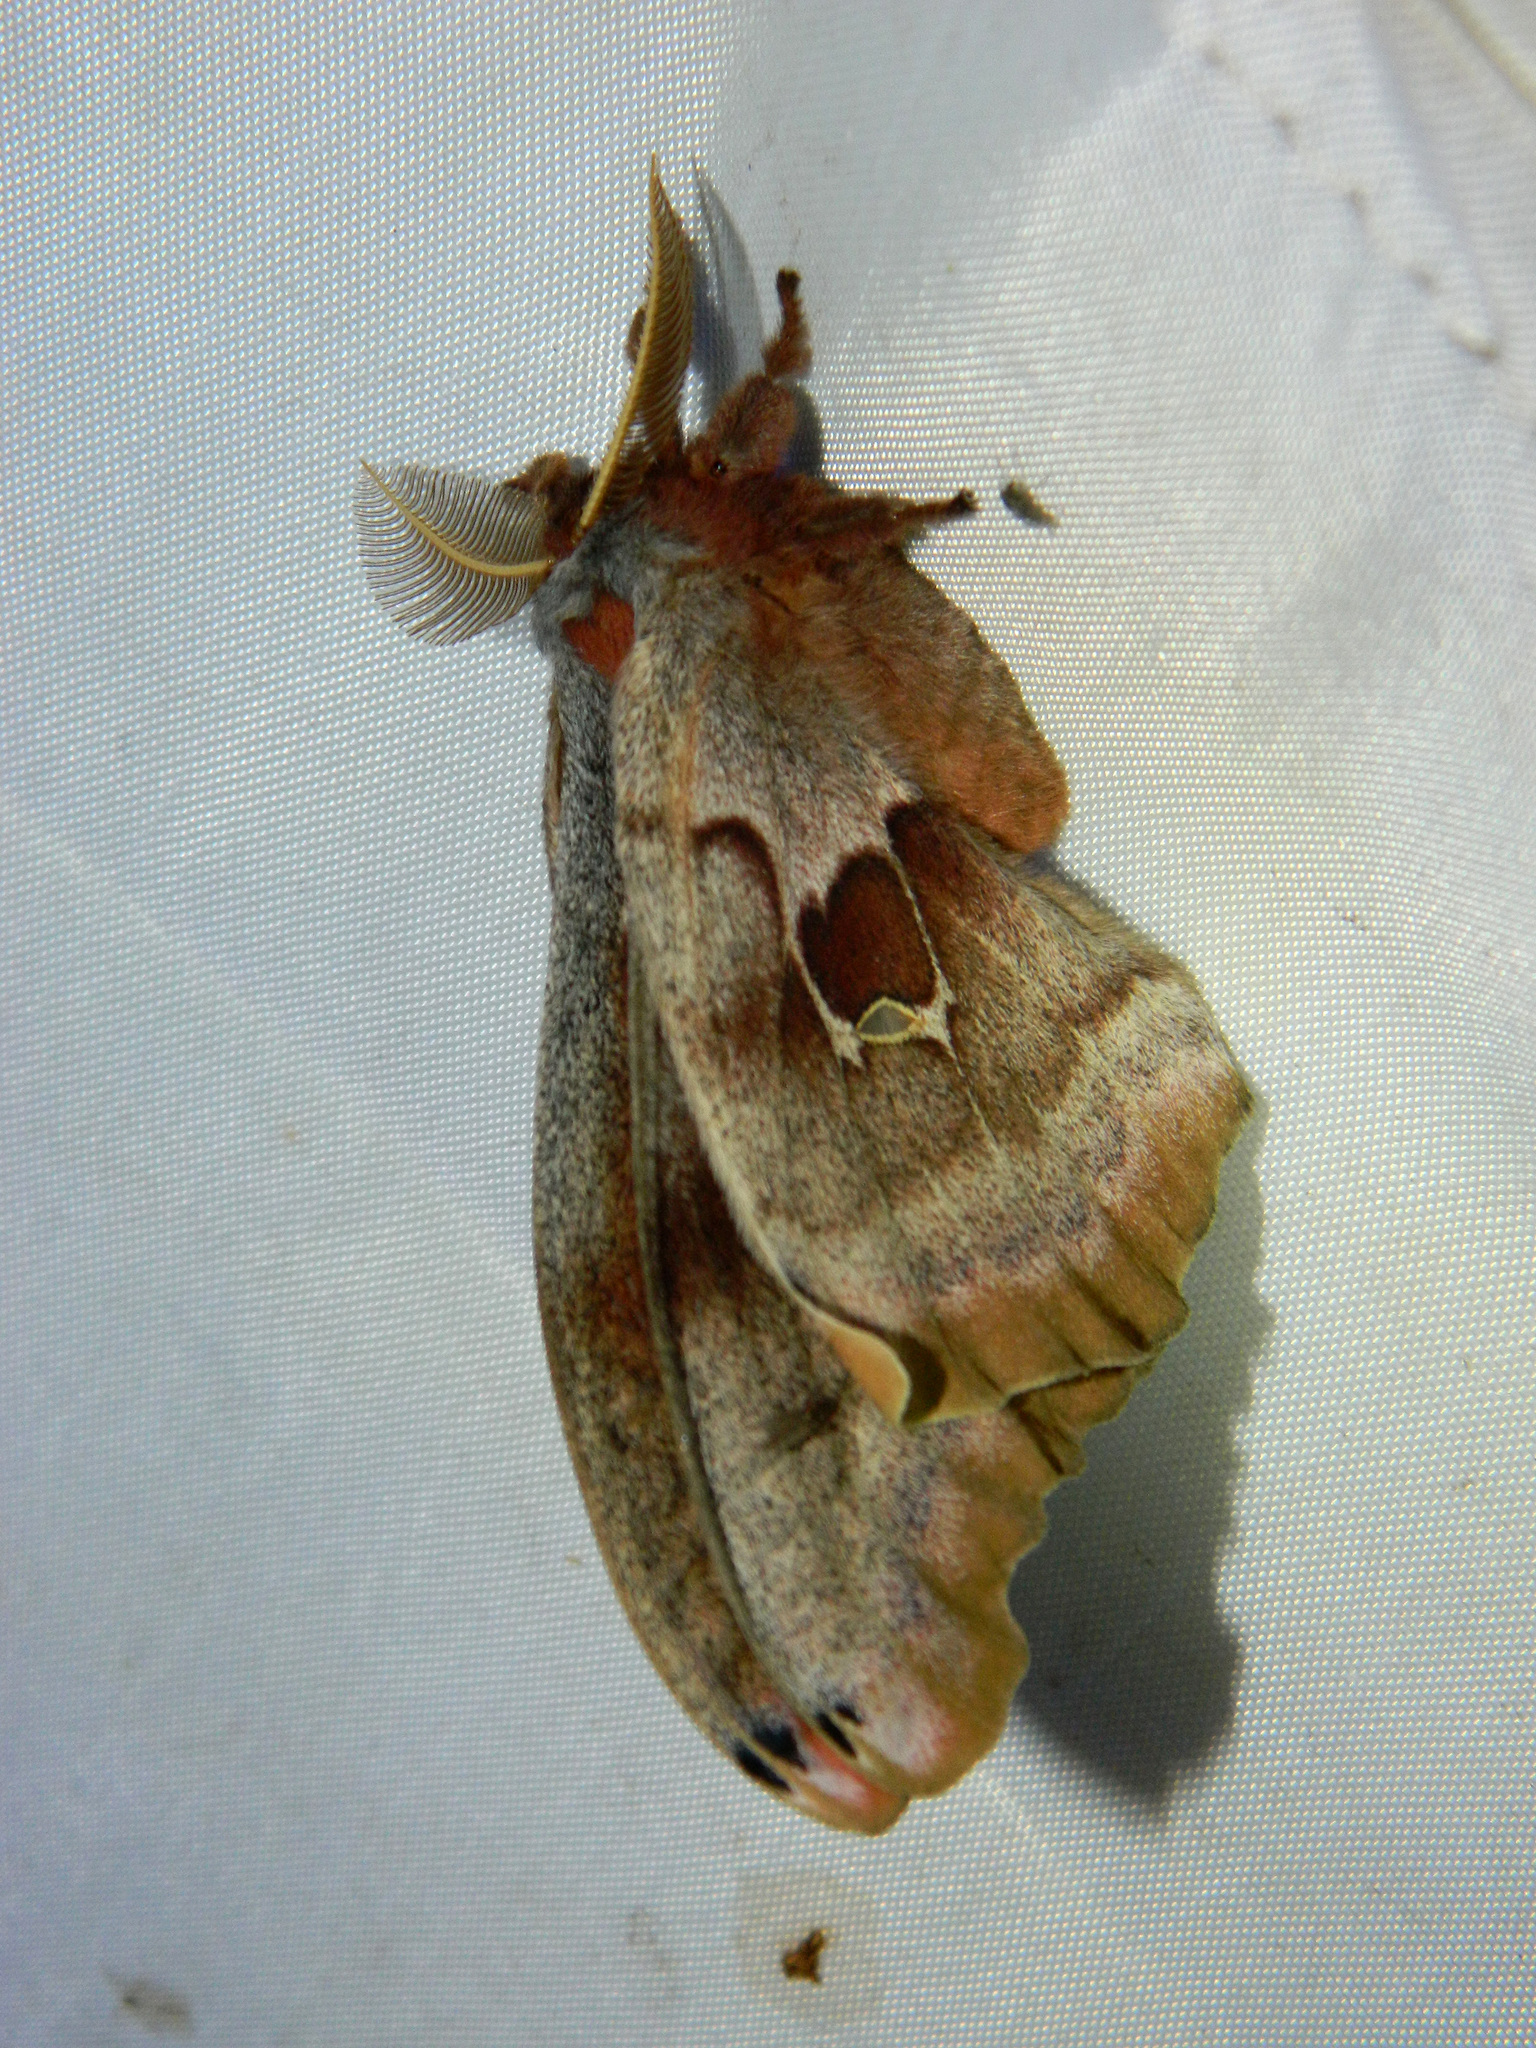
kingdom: Animalia
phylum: Arthropoda
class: Insecta
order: Lepidoptera
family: Saturniidae
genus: Antheraea
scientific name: Antheraea polyphemus
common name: Polyphemus moth
